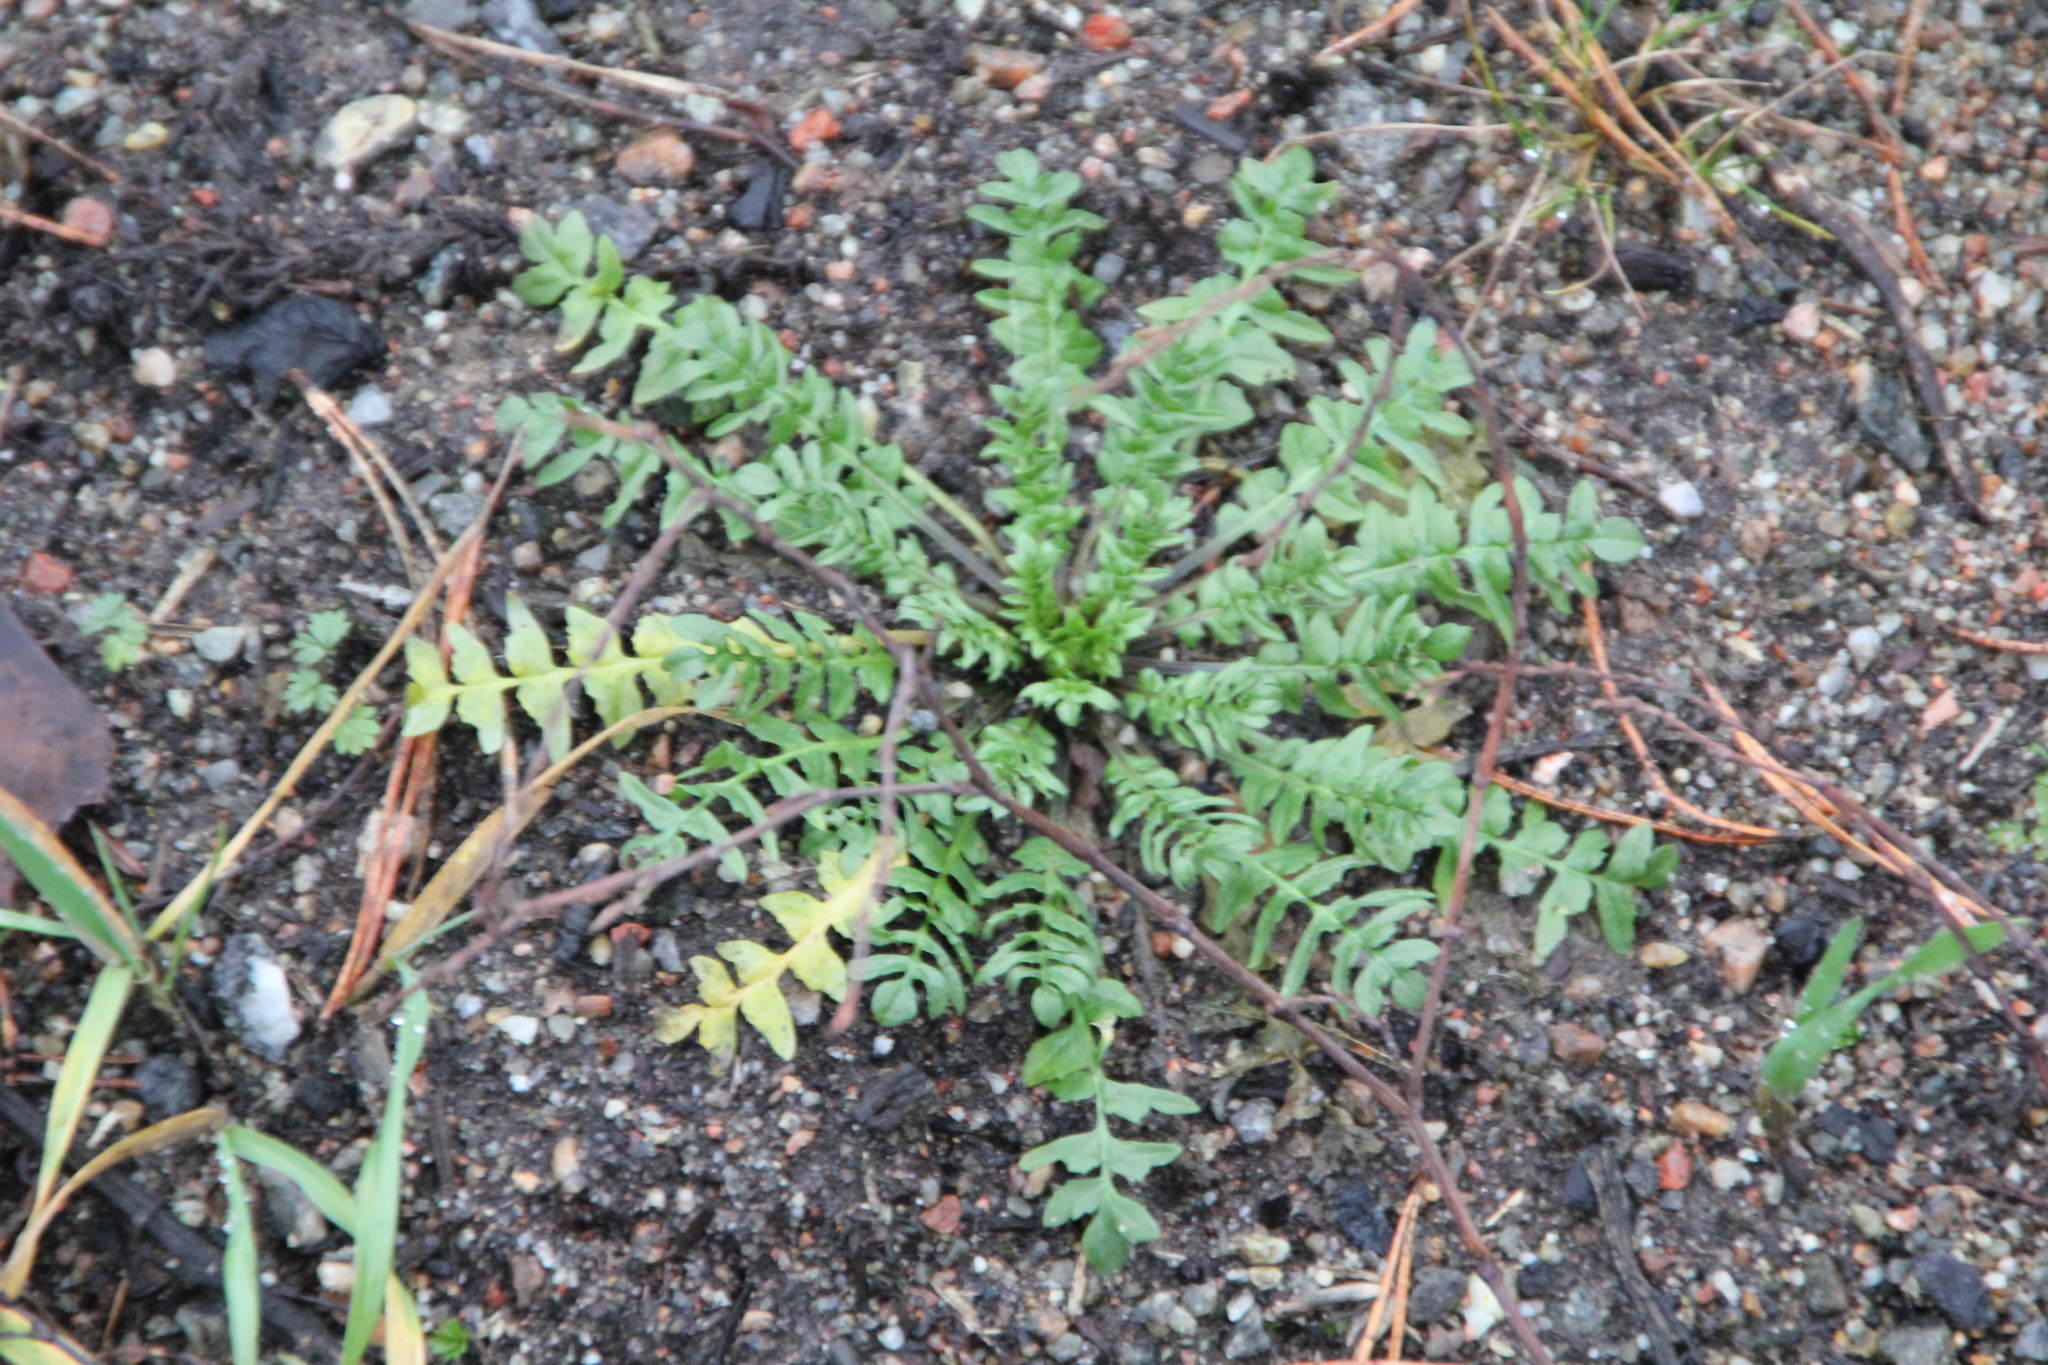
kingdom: Plantae
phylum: Tracheophyta
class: Magnoliopsida
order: Brassicales
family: Brassicaceae
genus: Capsella
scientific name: Capsella bursa-pastoris
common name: Shepherd's purse
